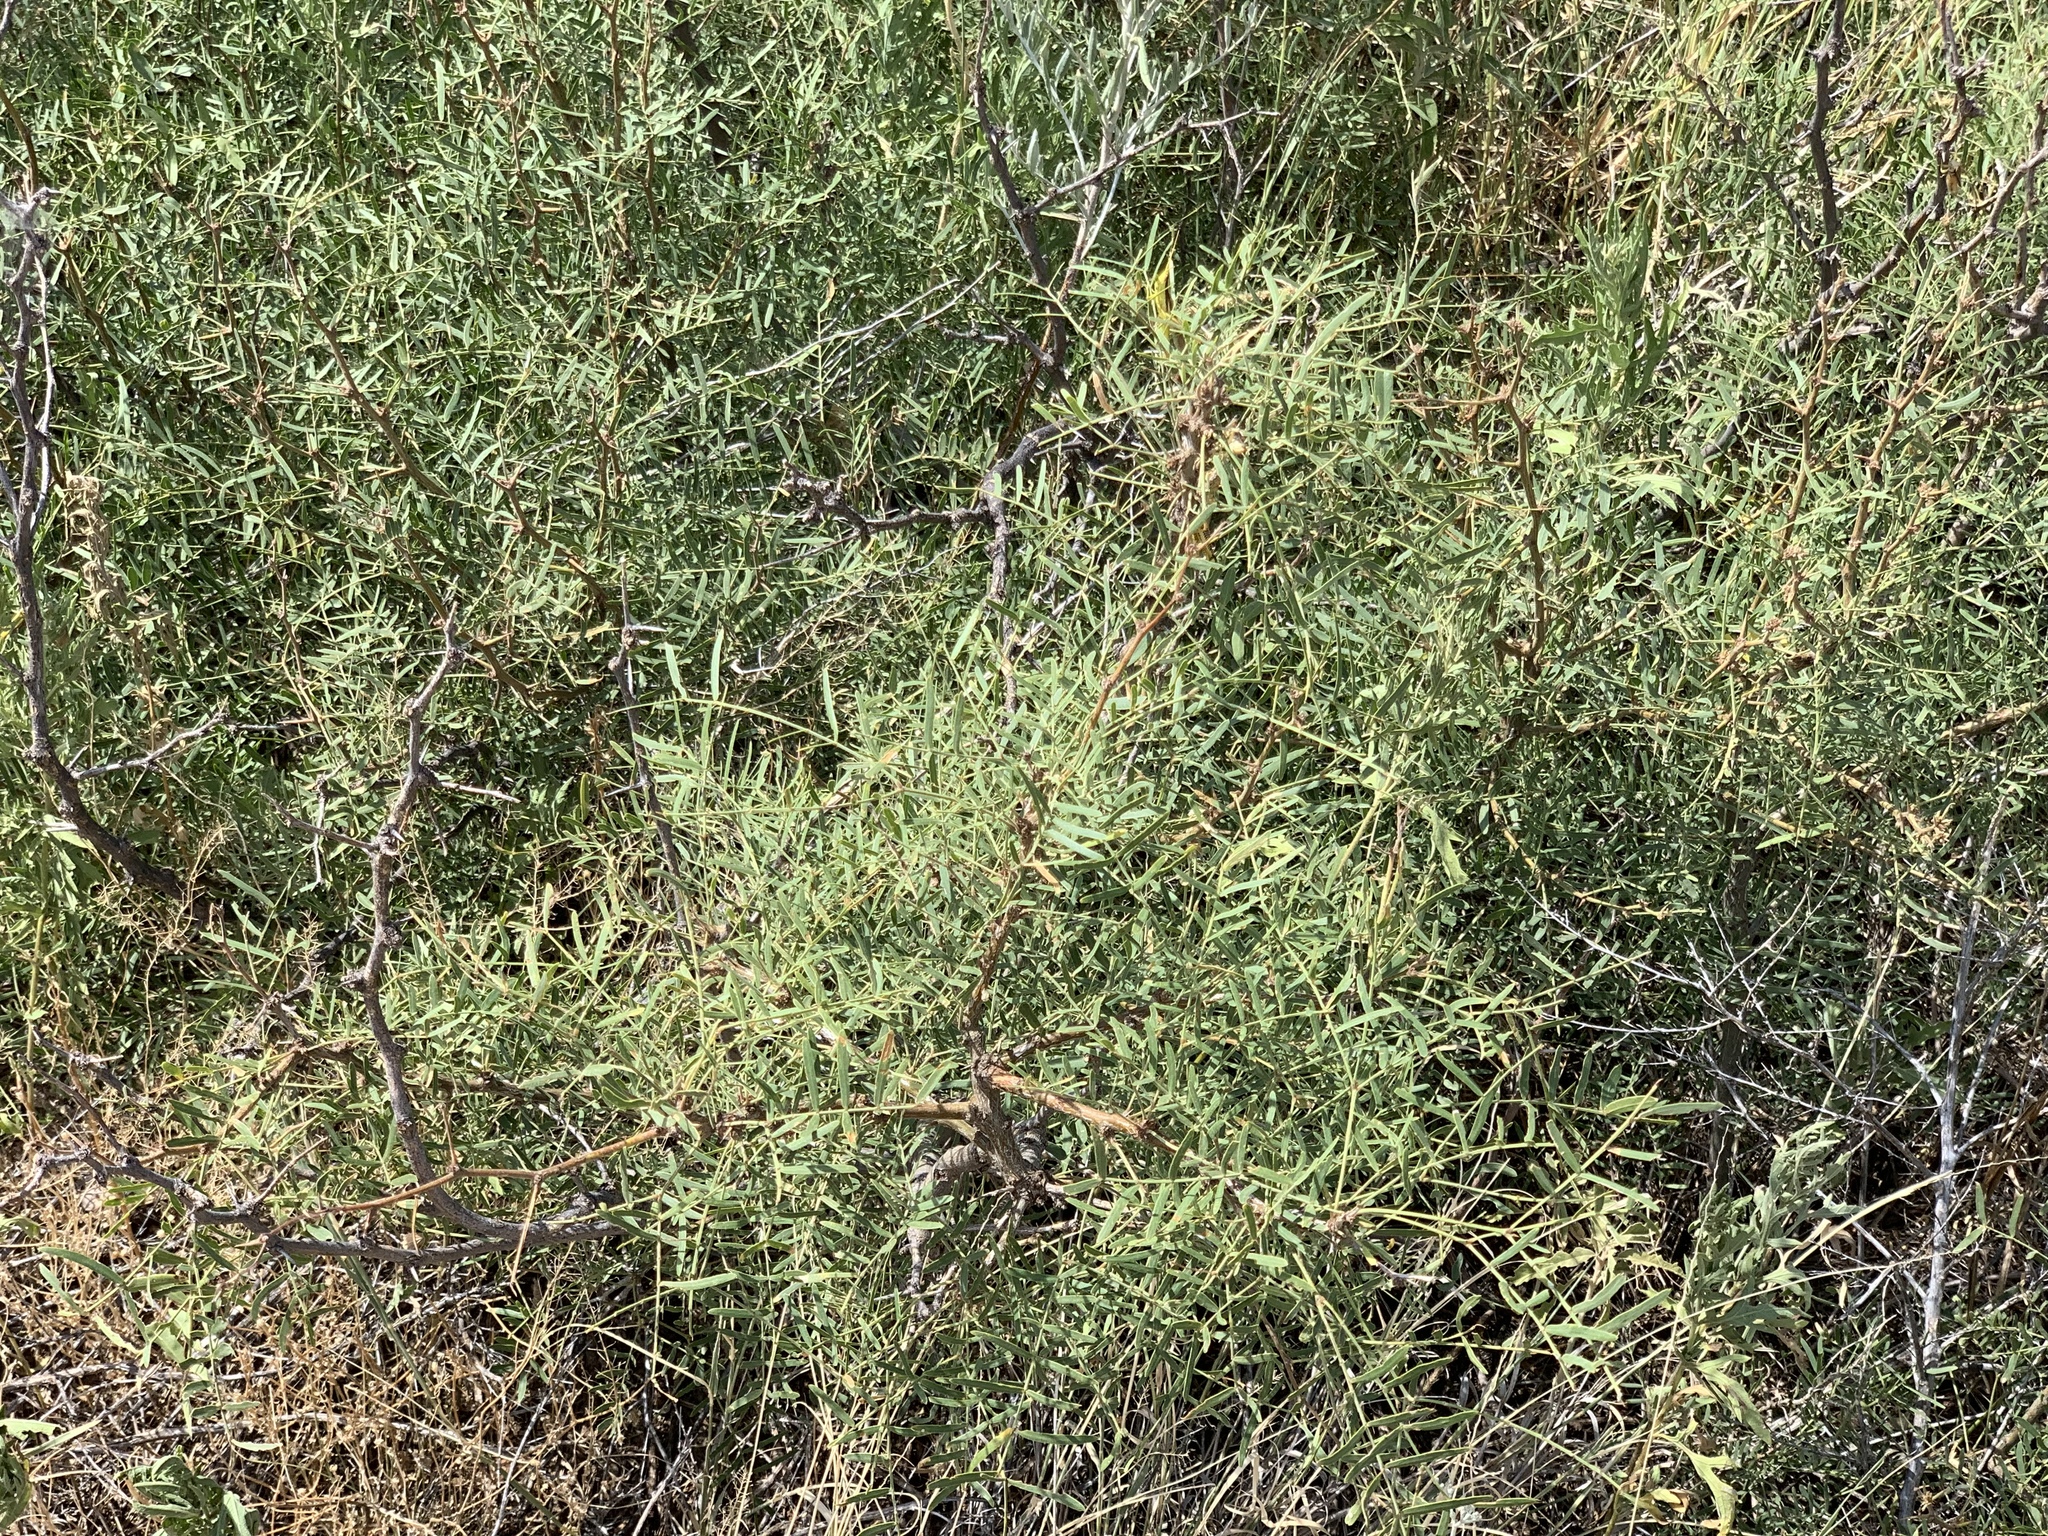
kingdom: Plantae
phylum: Tracheophyta
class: Magnoliopsida
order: Fabales
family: Fabaceae
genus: Prosopis
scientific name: Prosopis glandulosa
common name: Honey mesquite
